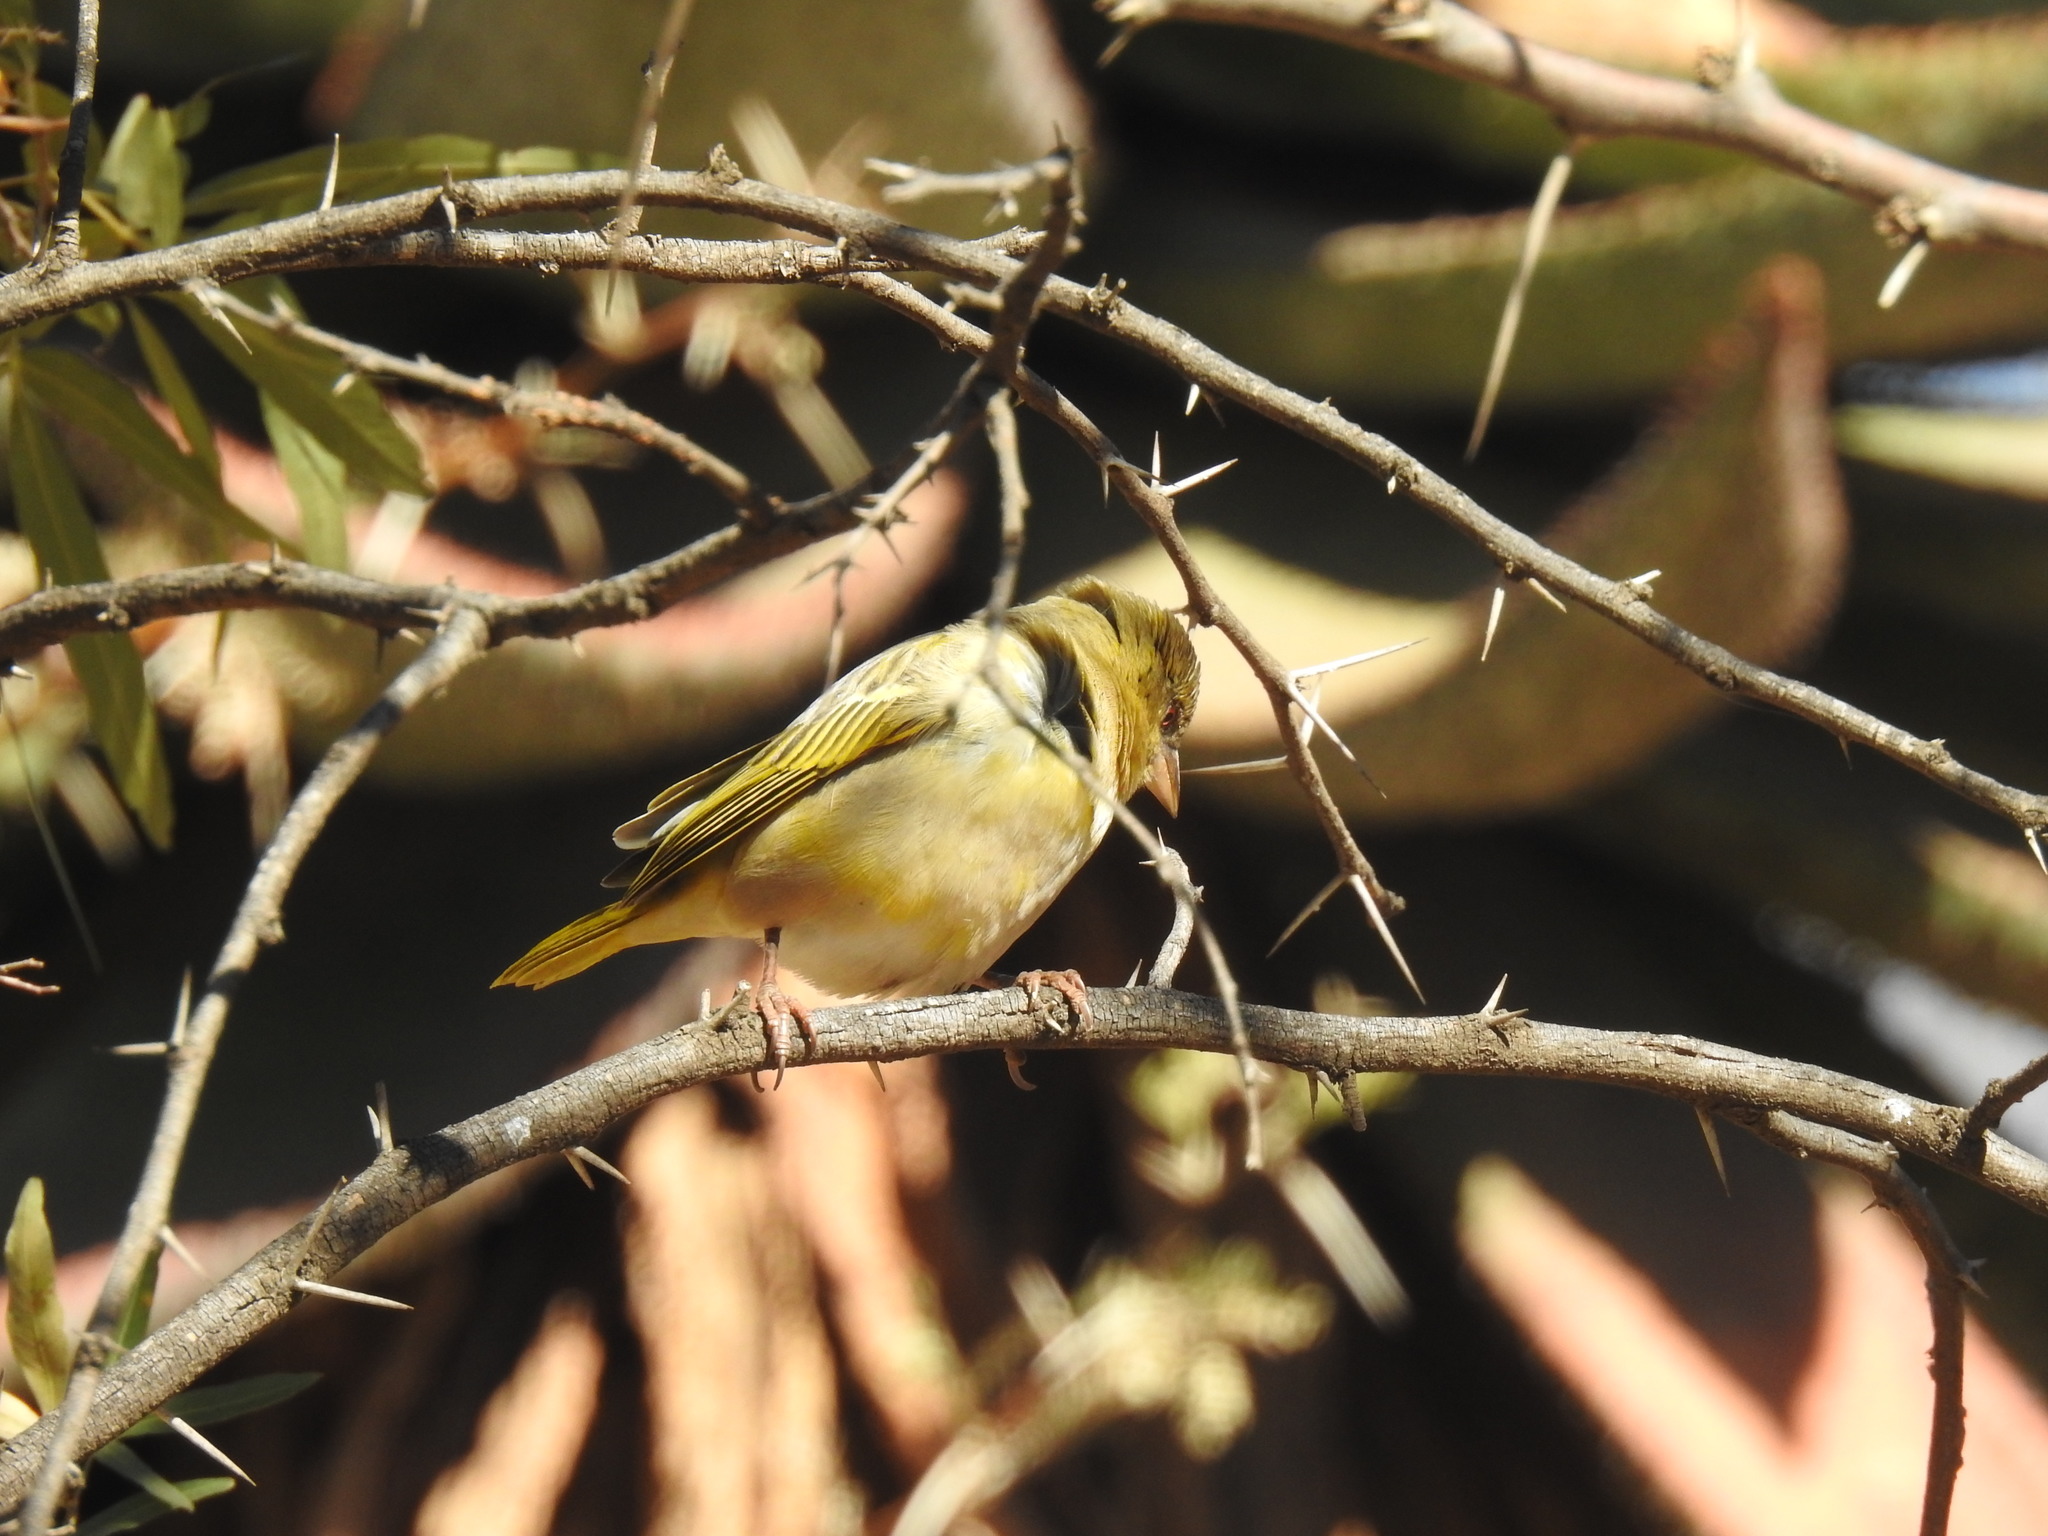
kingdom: Animalia
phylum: Chordata
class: Aves
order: Passeriformes
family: Ploceidae
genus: Ploceus
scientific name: Ploceus velatus
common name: Southern masked weaver
